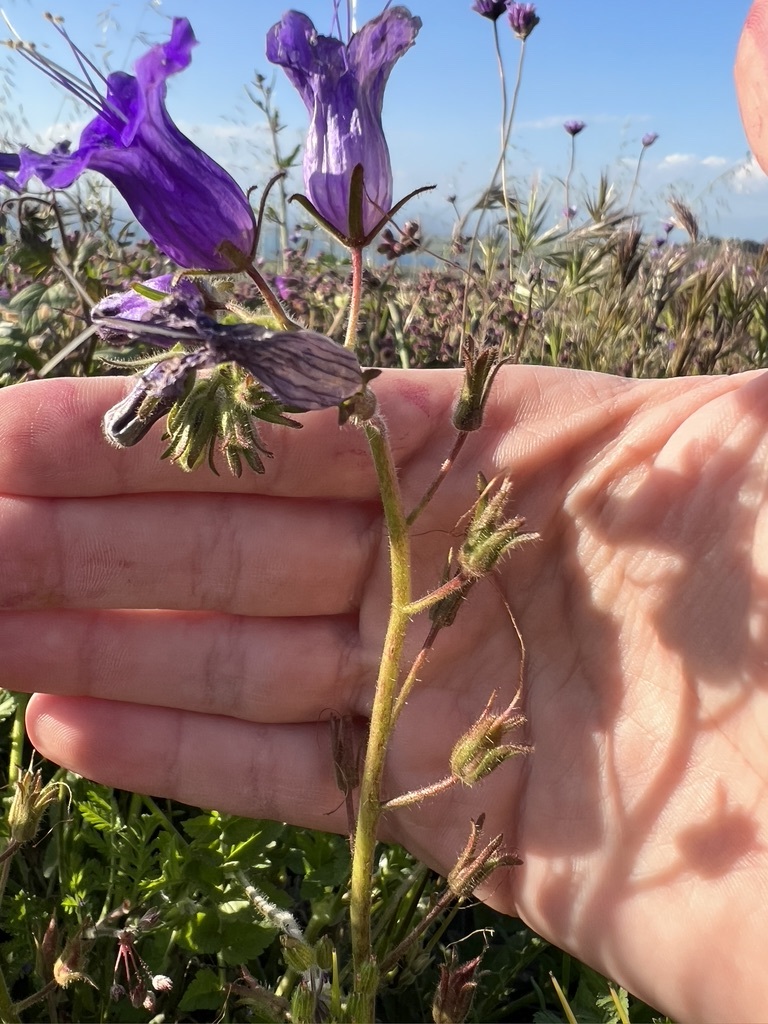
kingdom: Plantae
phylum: Tracheophyta
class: Magnoliopsida
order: Boraginales
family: Hydrophyllaceae
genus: Phacelia
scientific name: Phacelia minor
